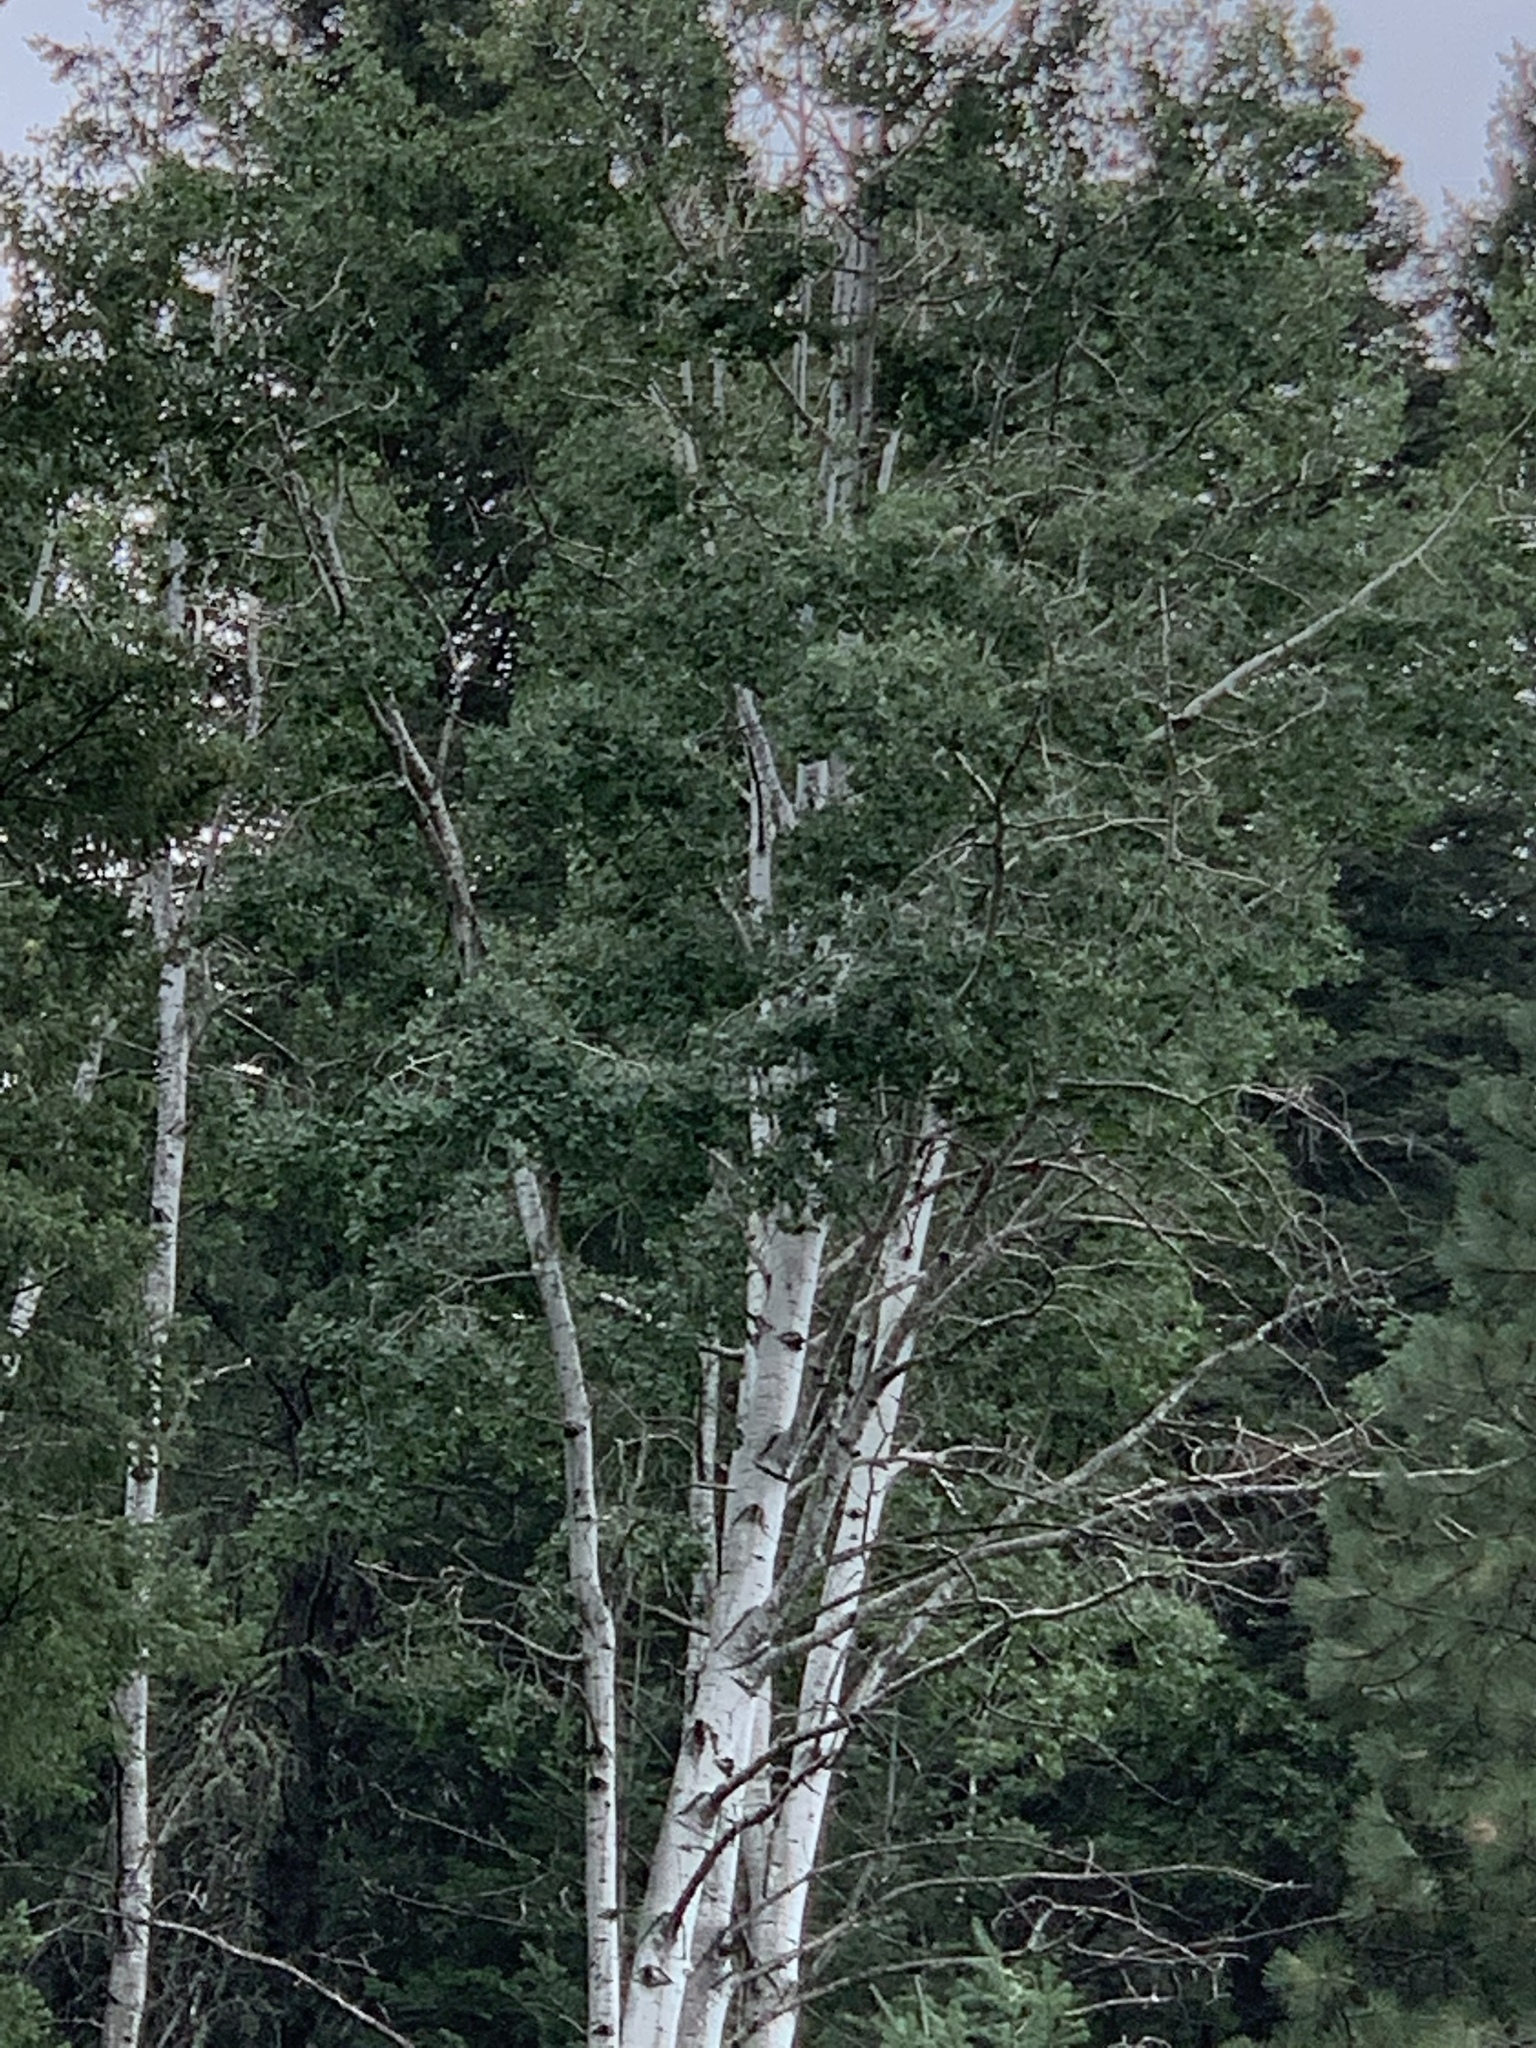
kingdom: Plantae
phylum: Tracheophyta
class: Magnoliopsida
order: Malpighiales
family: Salicaceae
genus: Populus
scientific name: Populus tremuloides
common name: Quaking aspen
